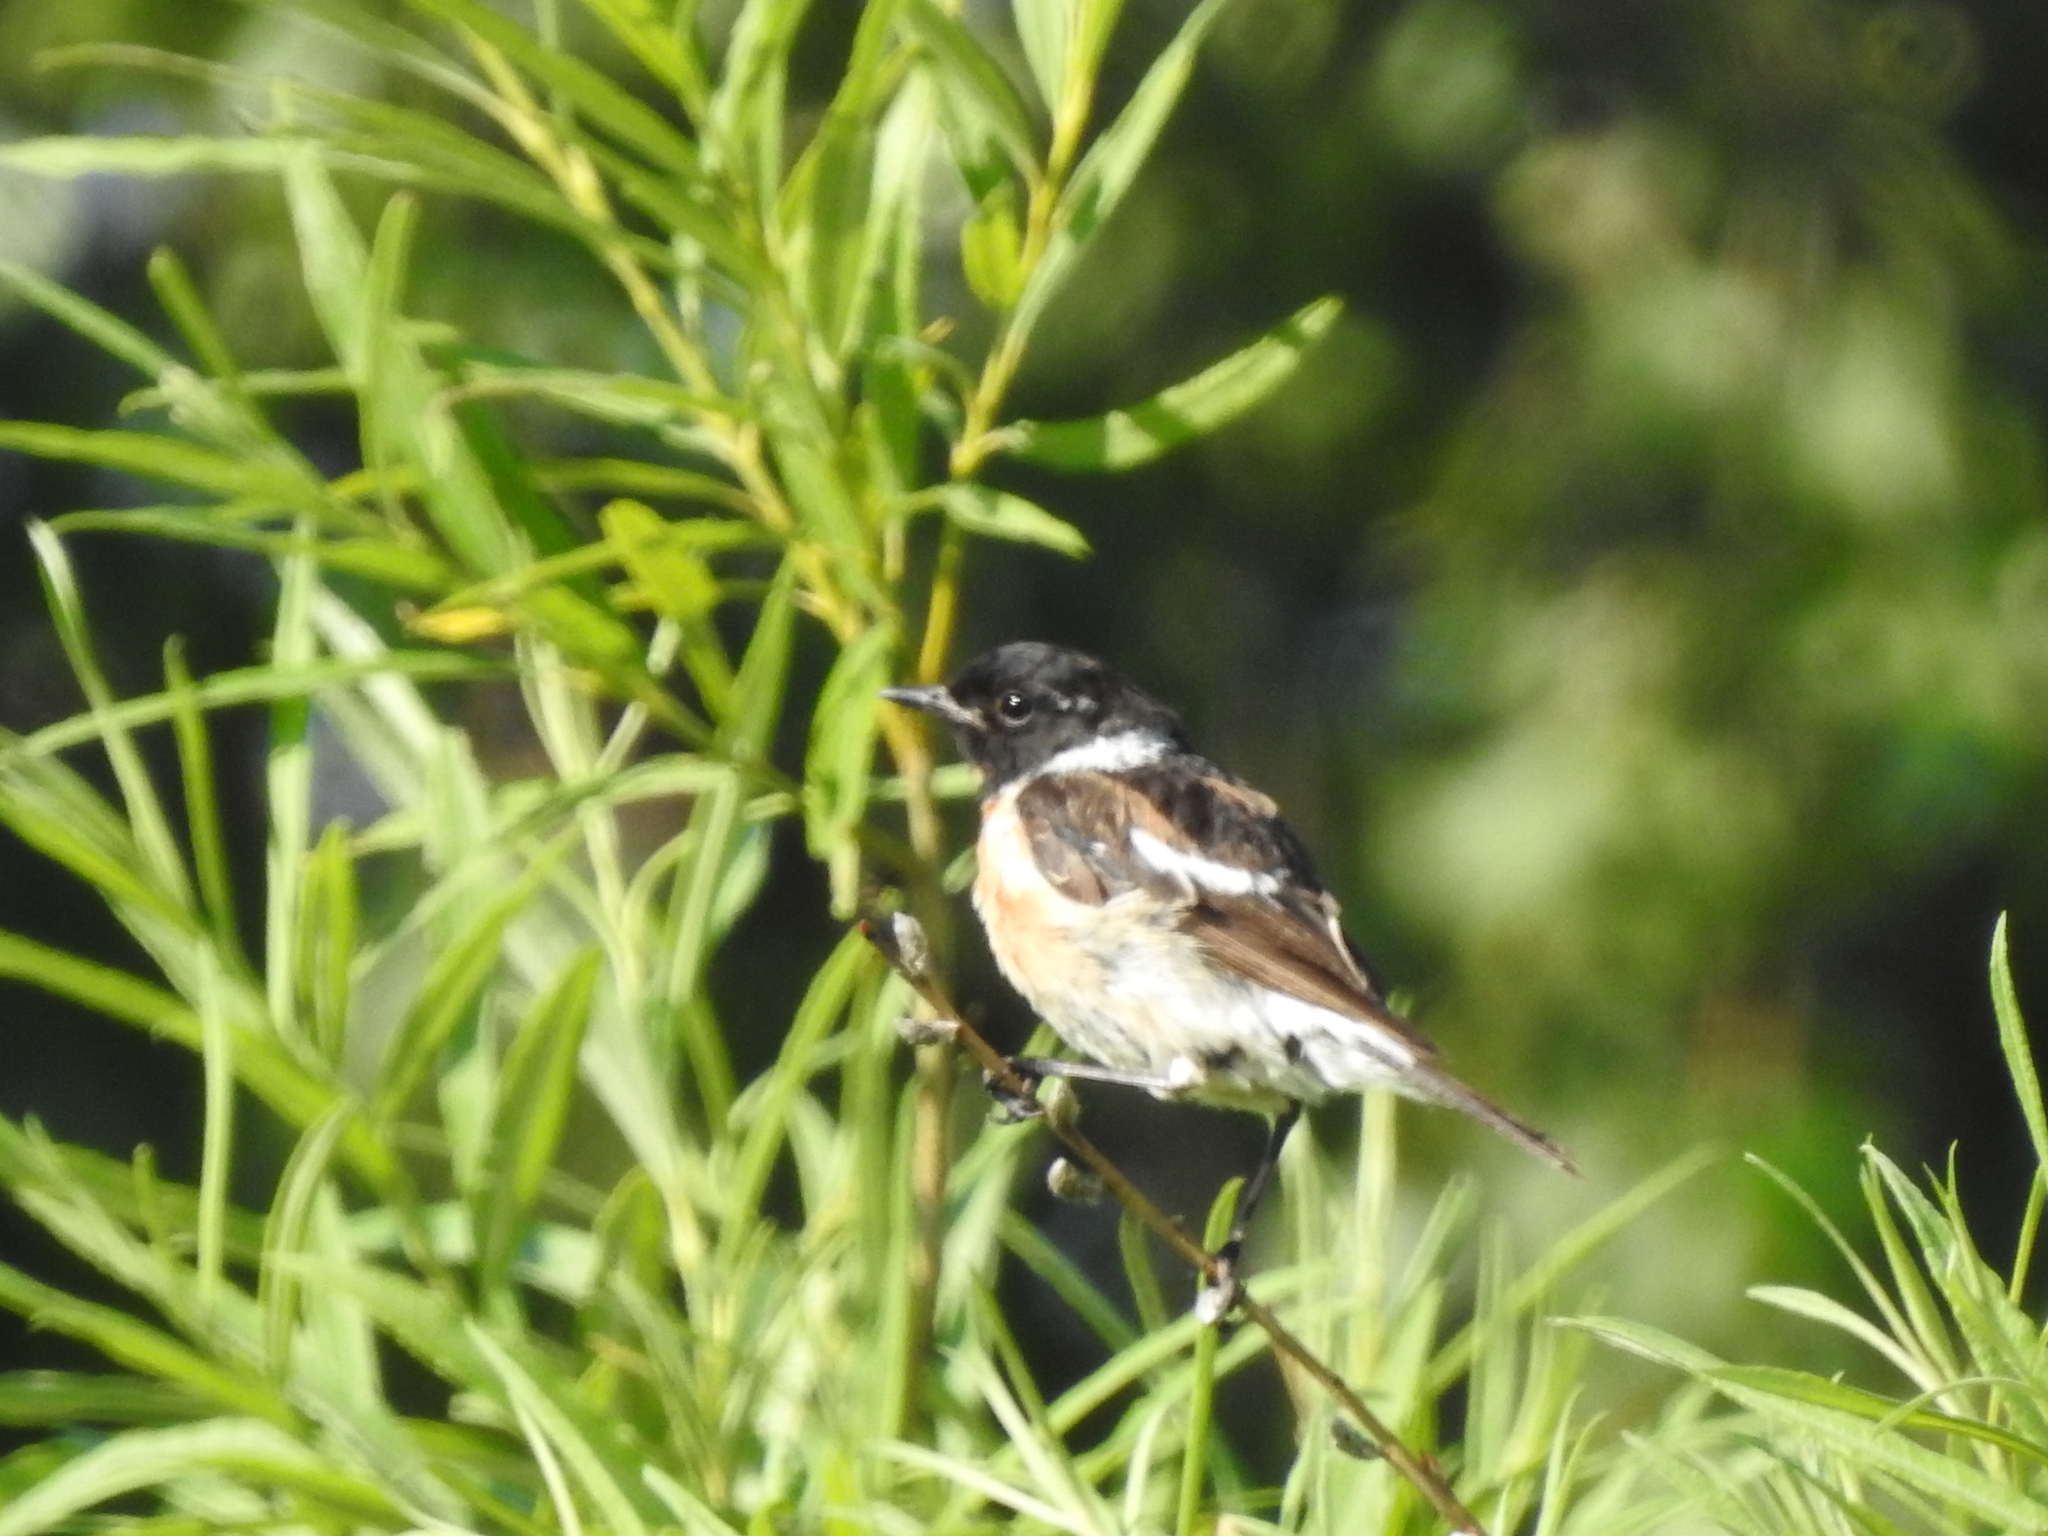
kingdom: Animalia
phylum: Chordata
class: Aves
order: Passeriformes
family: Muscicapidae
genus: Saxicola
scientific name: Saxicola maurus
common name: Siberian stonechat
